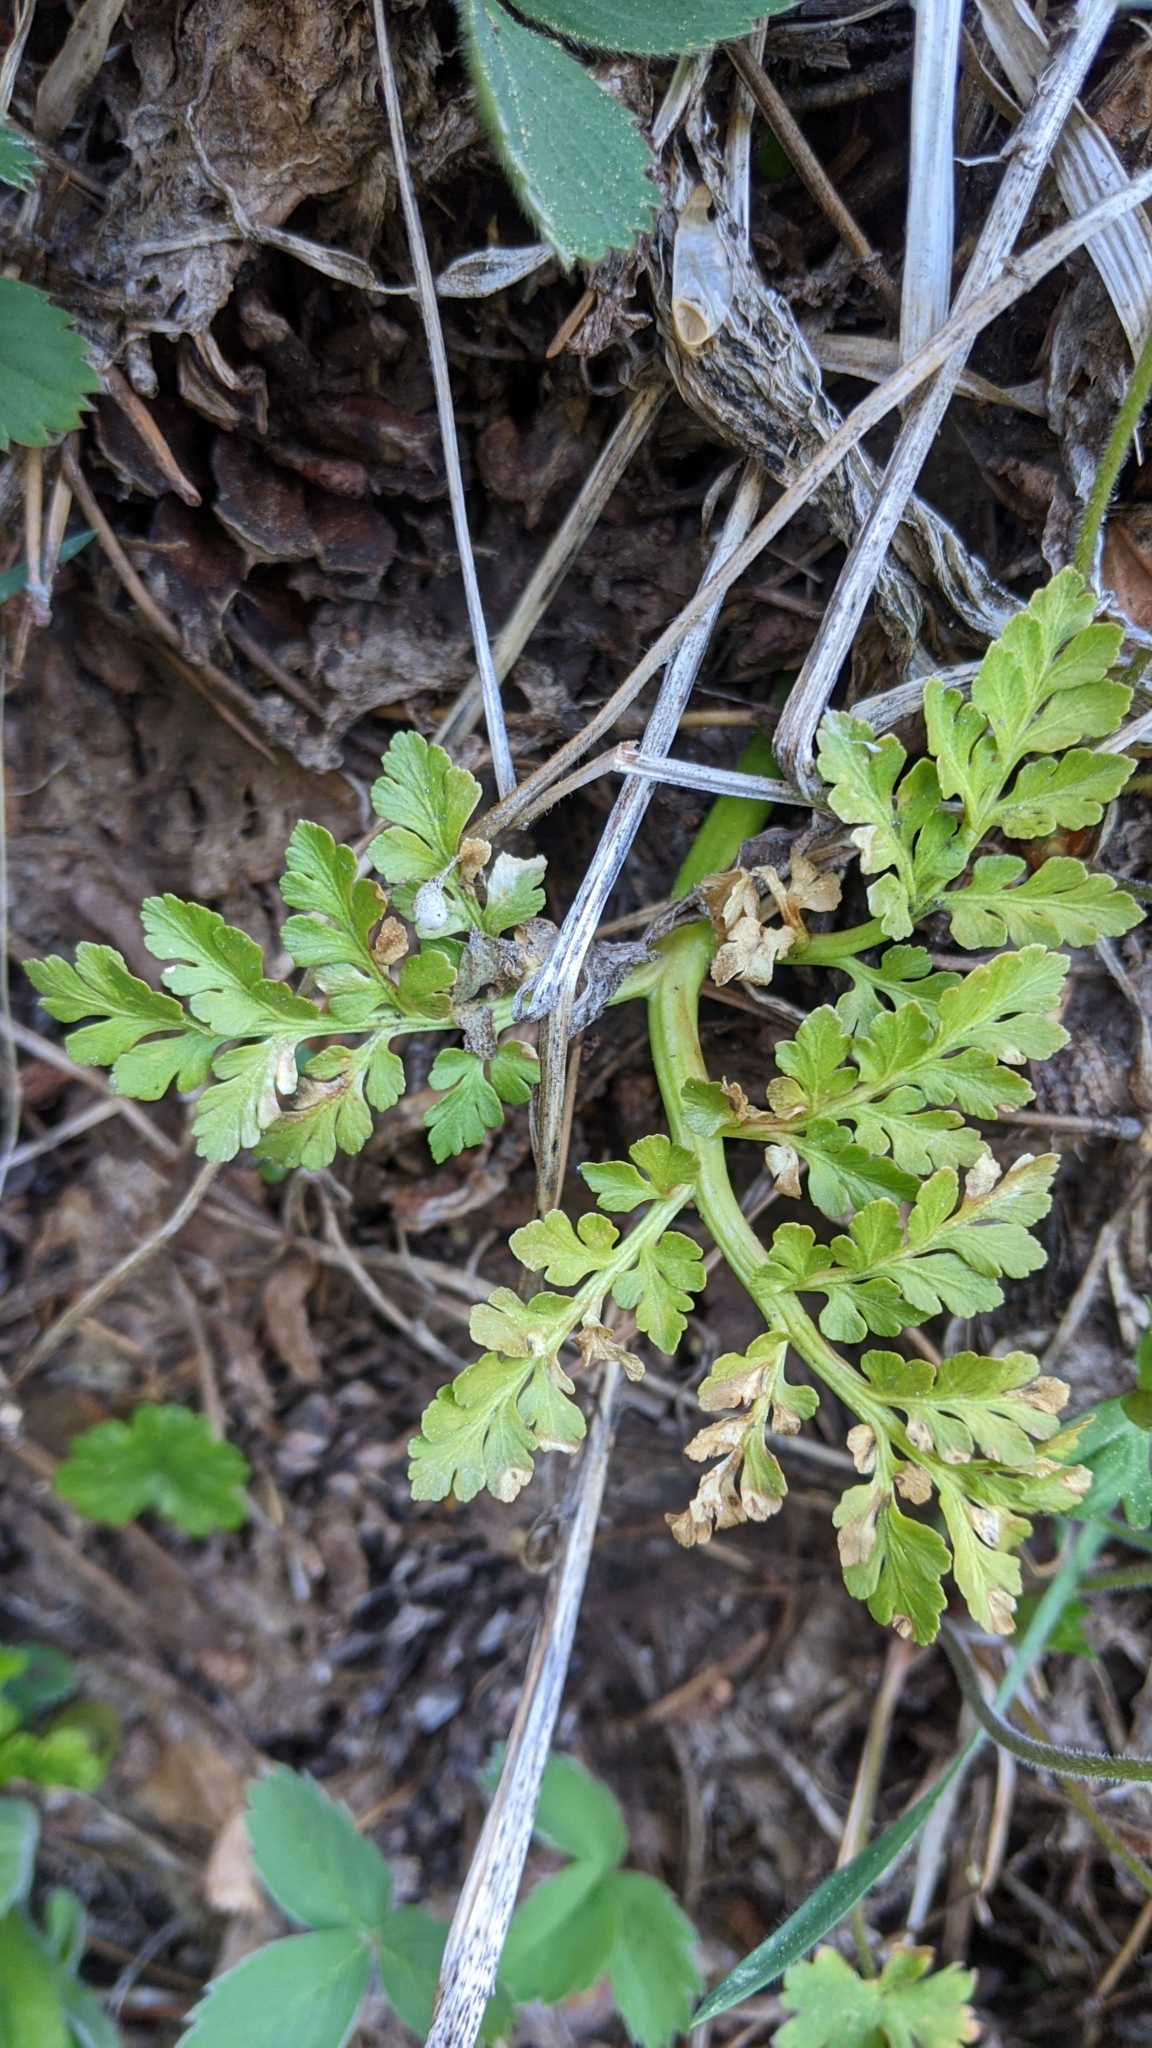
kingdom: Plantae
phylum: Tracheophyta
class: Polypodiopsida
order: Ophioglossales
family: Ophioglossaceae
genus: Sceptridium
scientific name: Sceptridium multifidum
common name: Leathery grape fern
